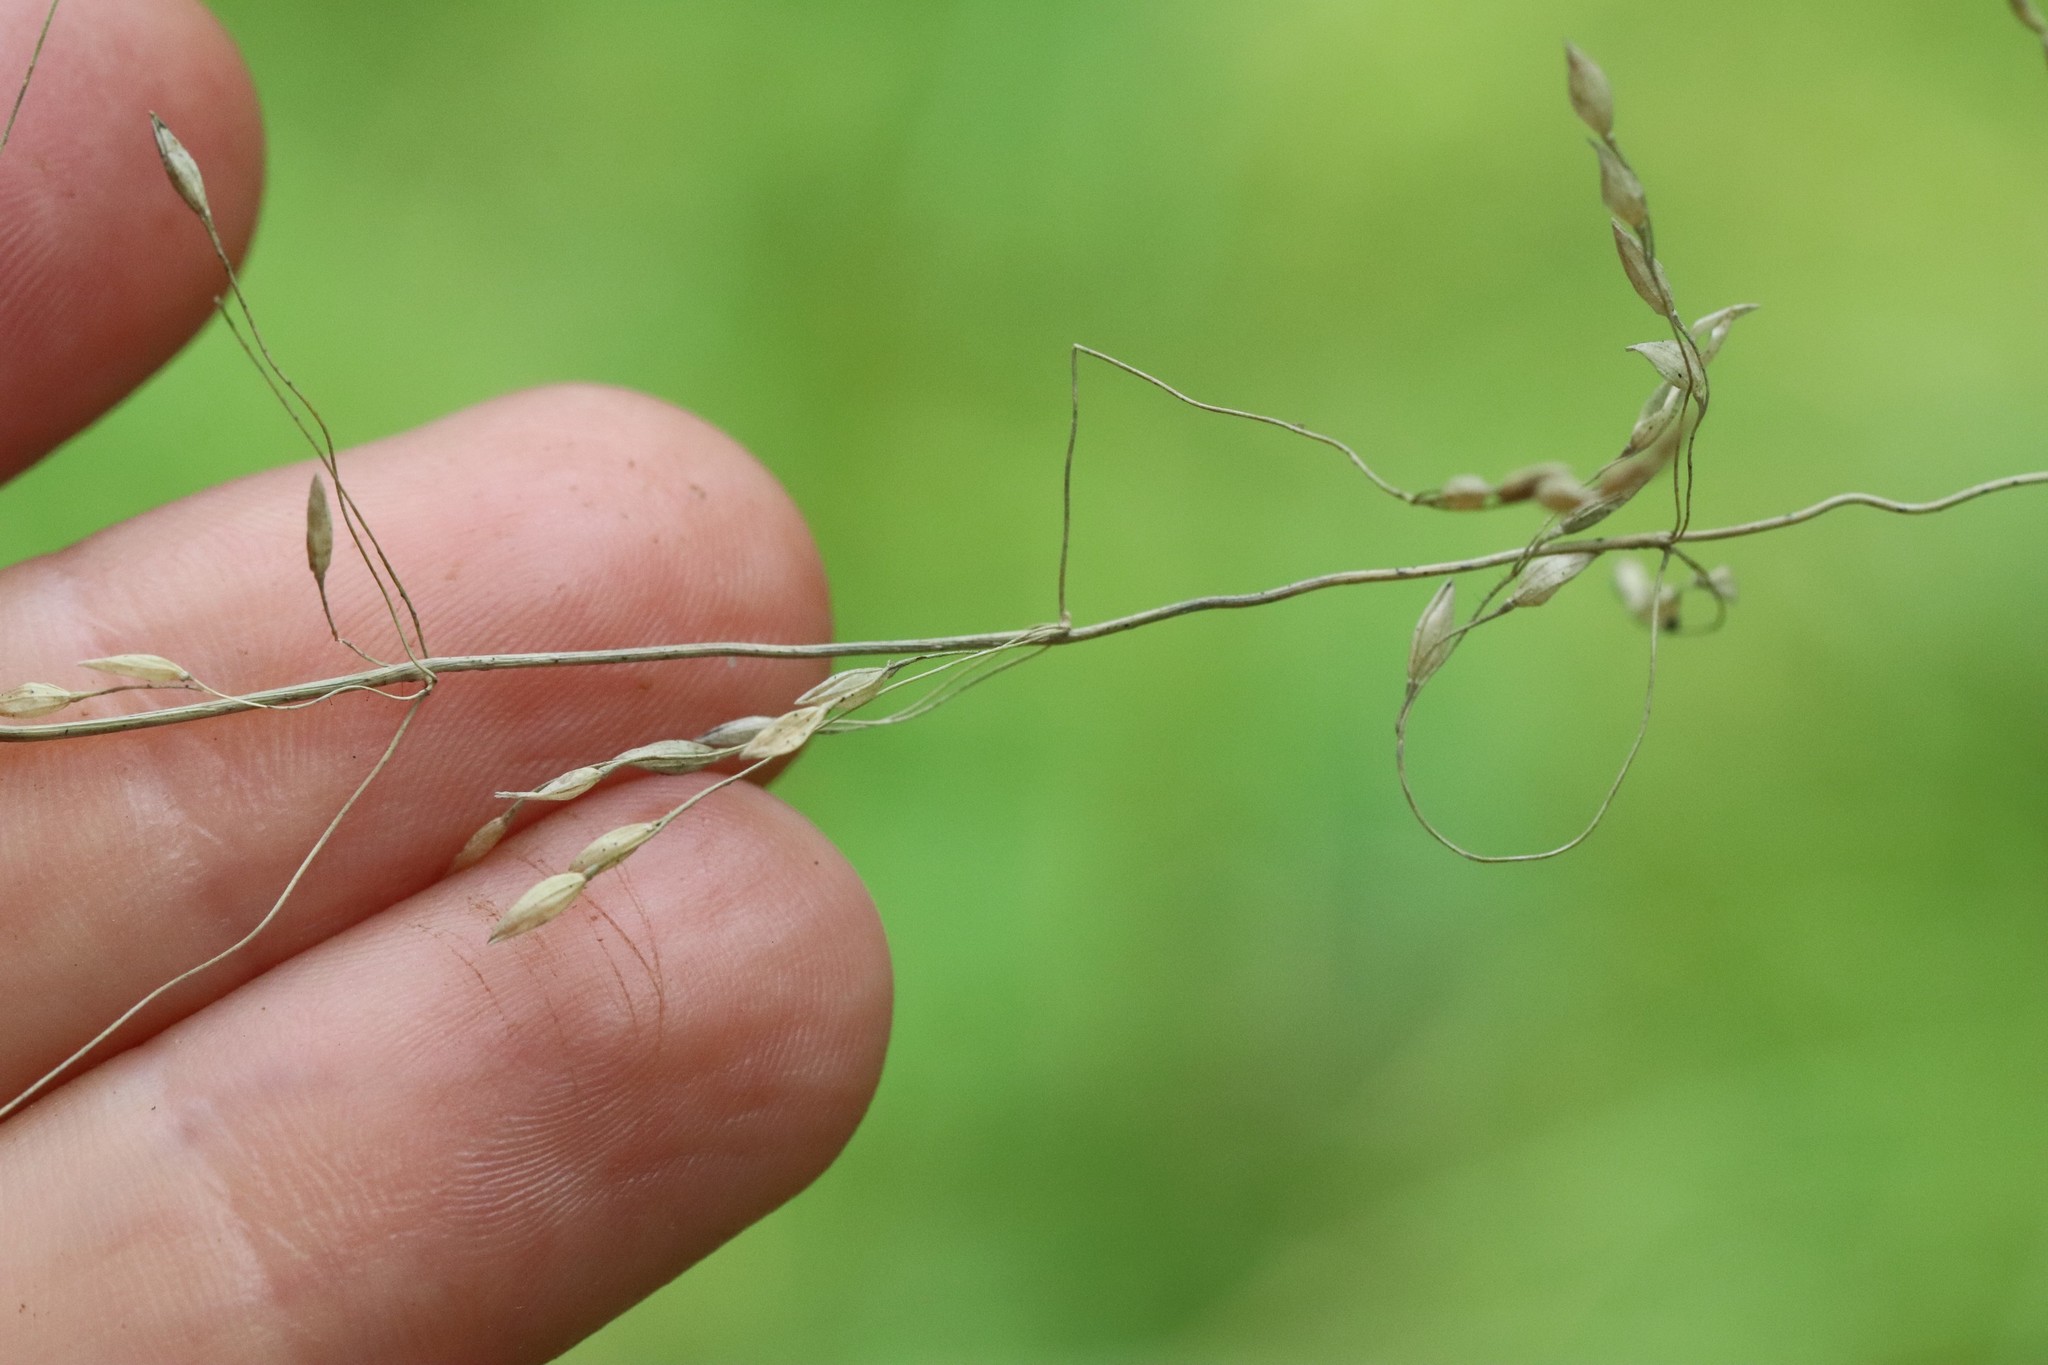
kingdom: Plantae
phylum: Tracheophyta
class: Liliopsida
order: Poales
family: Poaceae
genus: Milium
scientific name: Milium effusum
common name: Wood millet
